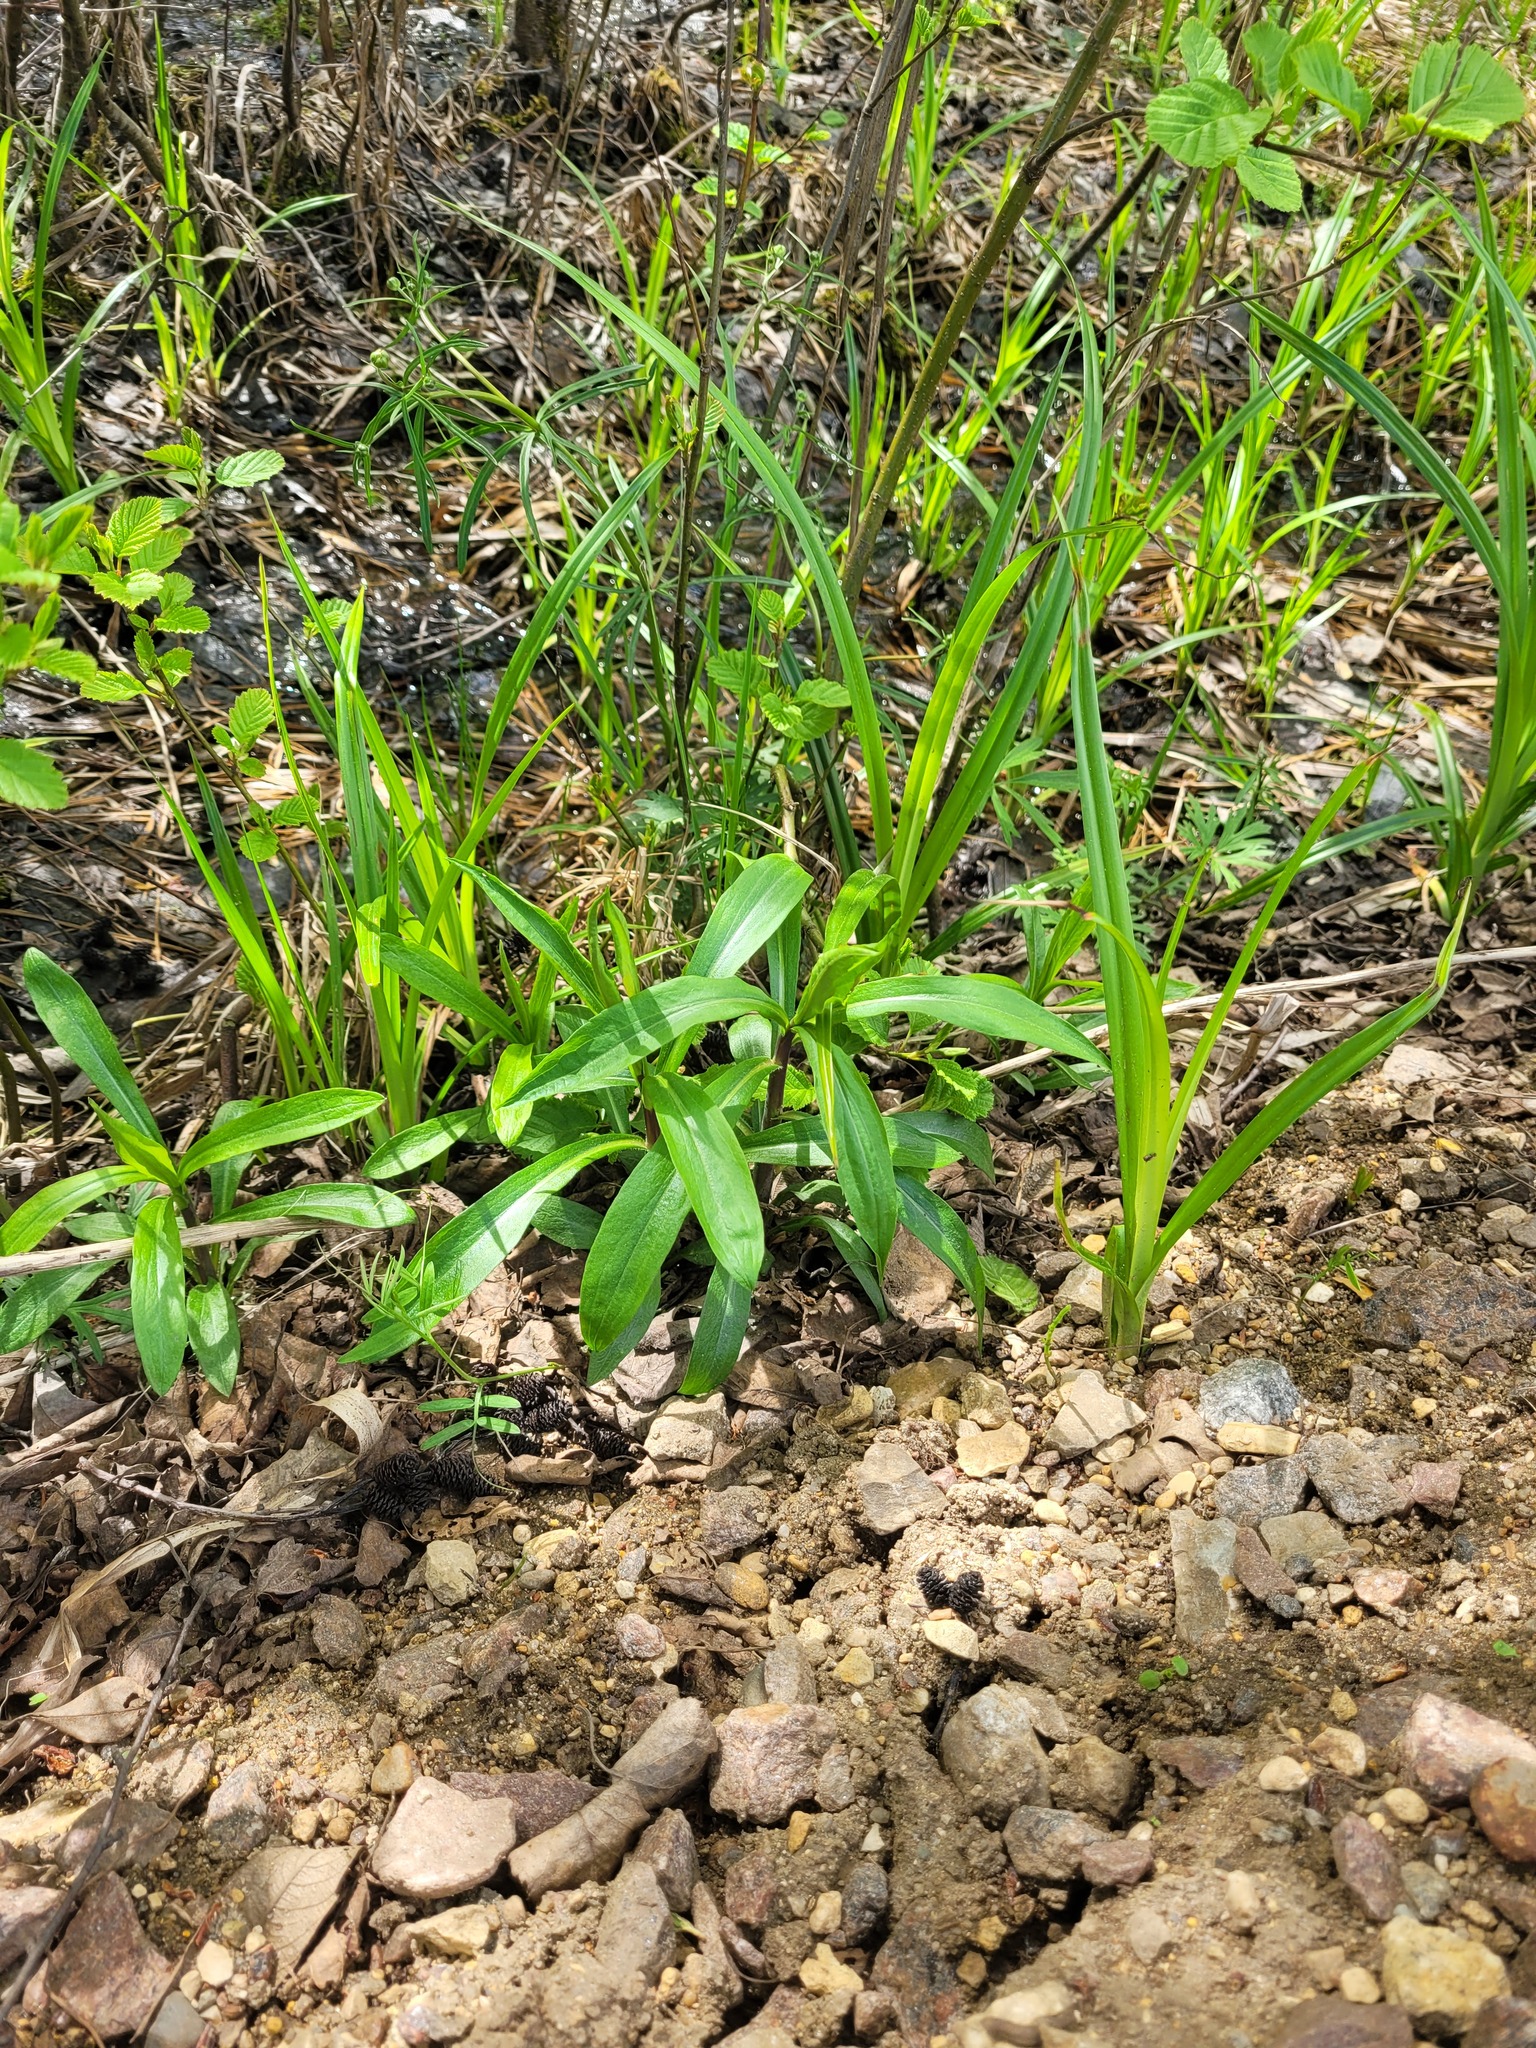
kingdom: Plantae
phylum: Tracheophyta
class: Magnoliopsida
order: Asterales
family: Asteraceae
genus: Solidago
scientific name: Solidago gigantea
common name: Giant goldenrod
